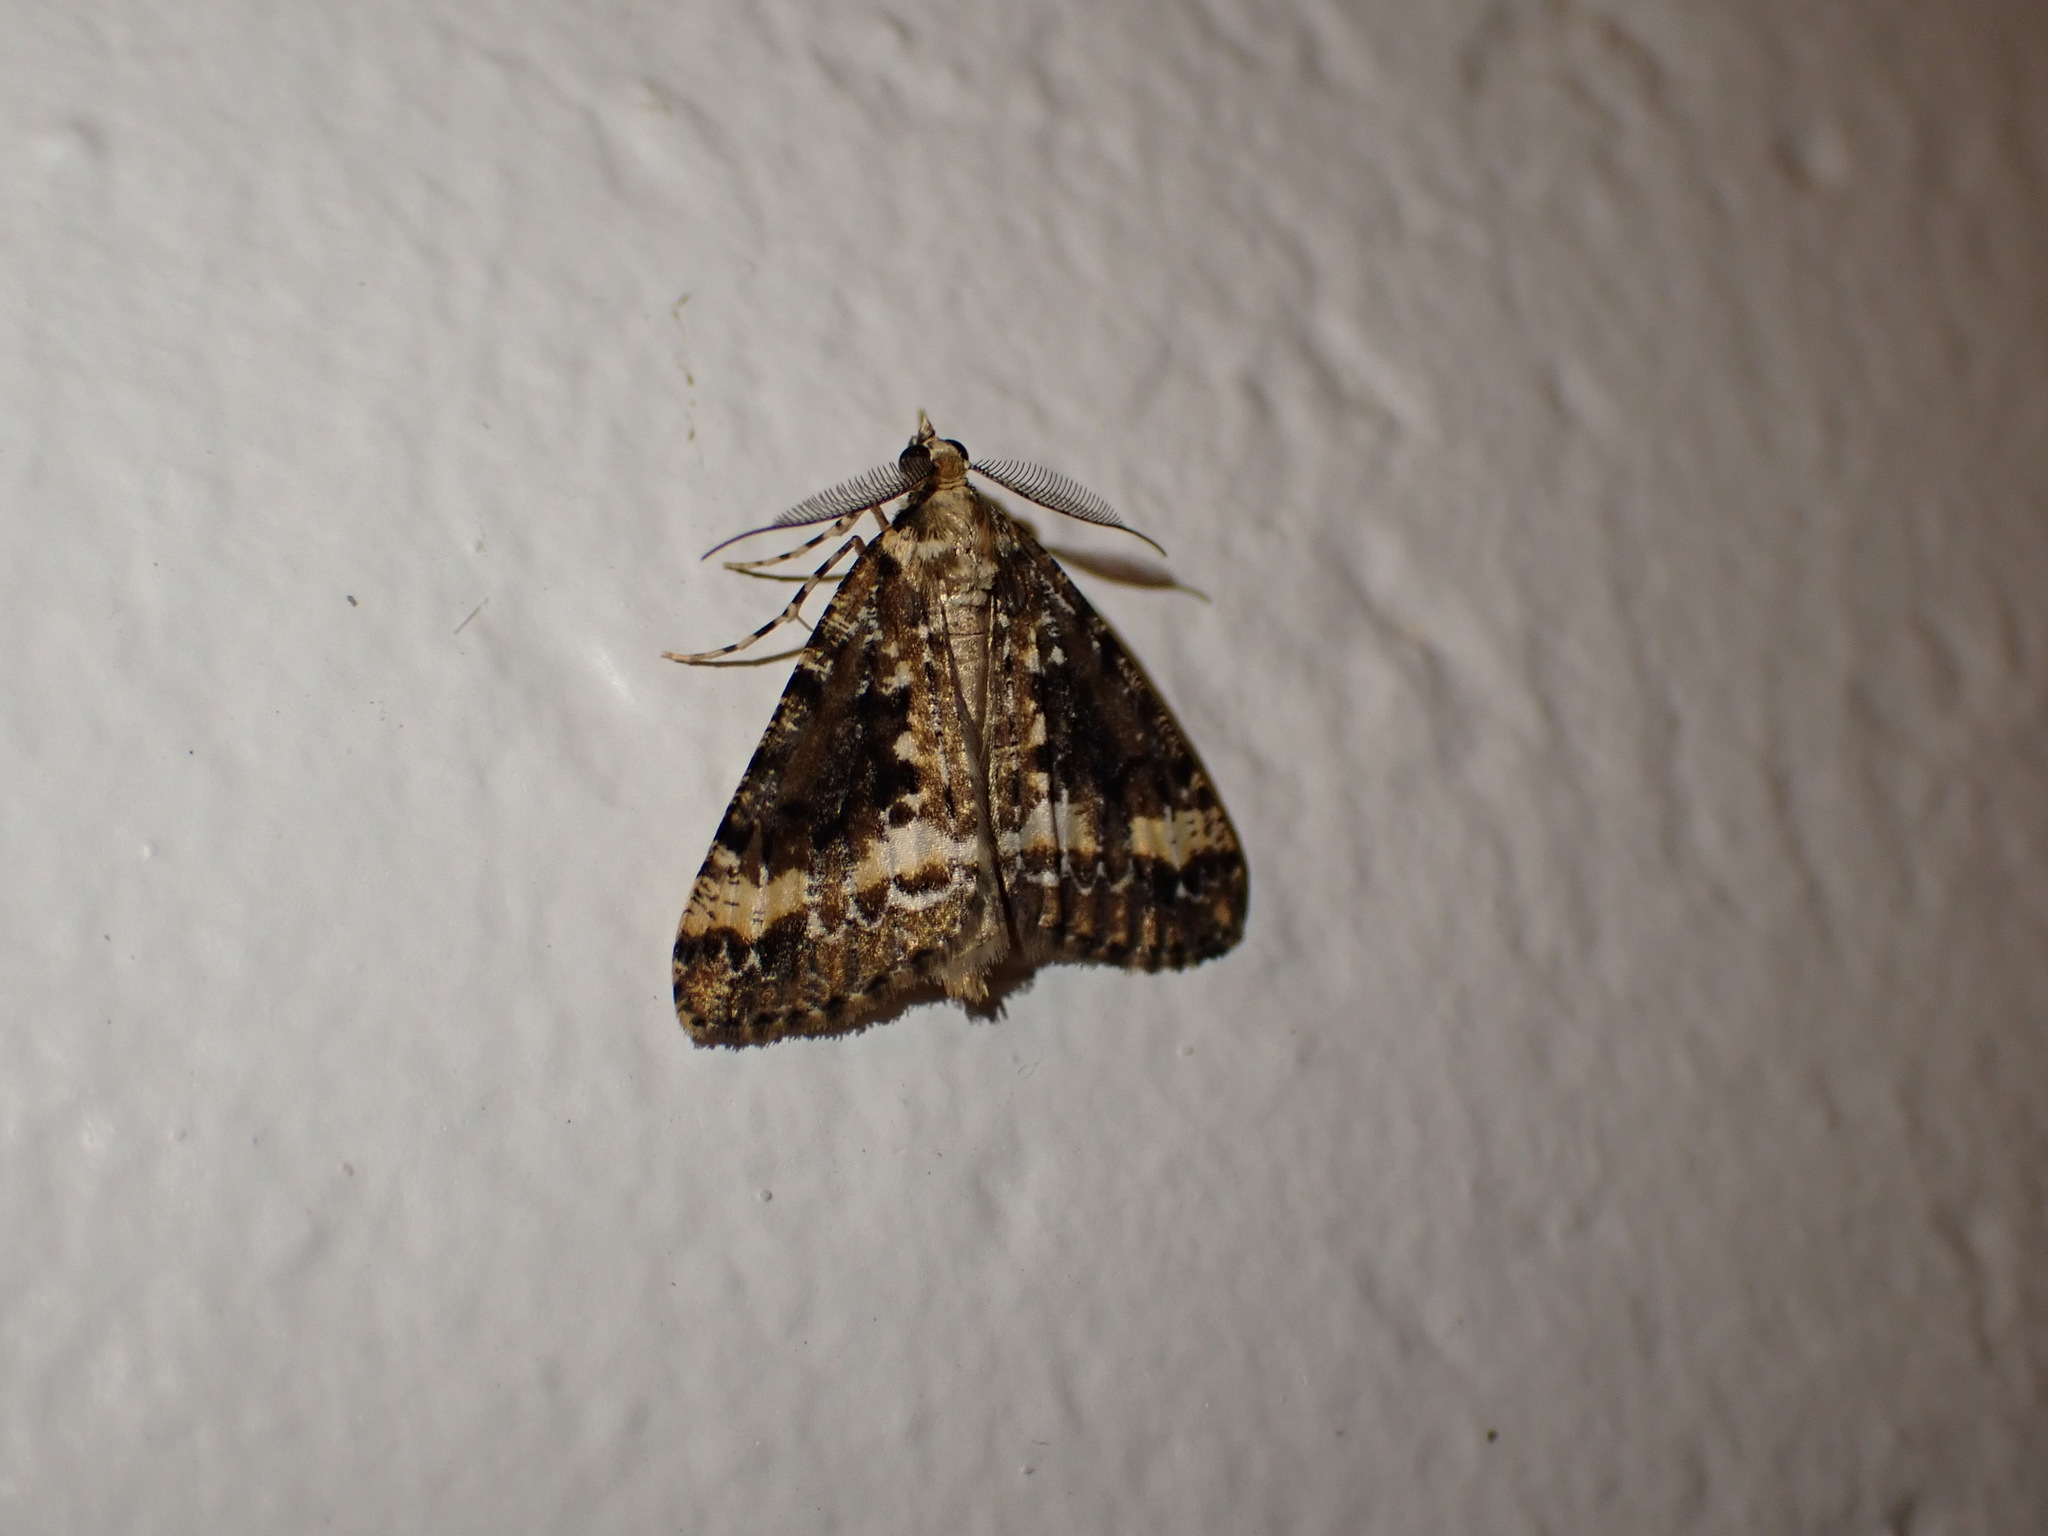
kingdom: Animalia
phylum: Arthropoda
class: Insecta
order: Lepidoptera
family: Geometridae
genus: Pseudocoremia
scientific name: Pseudocoremia leucelaea
